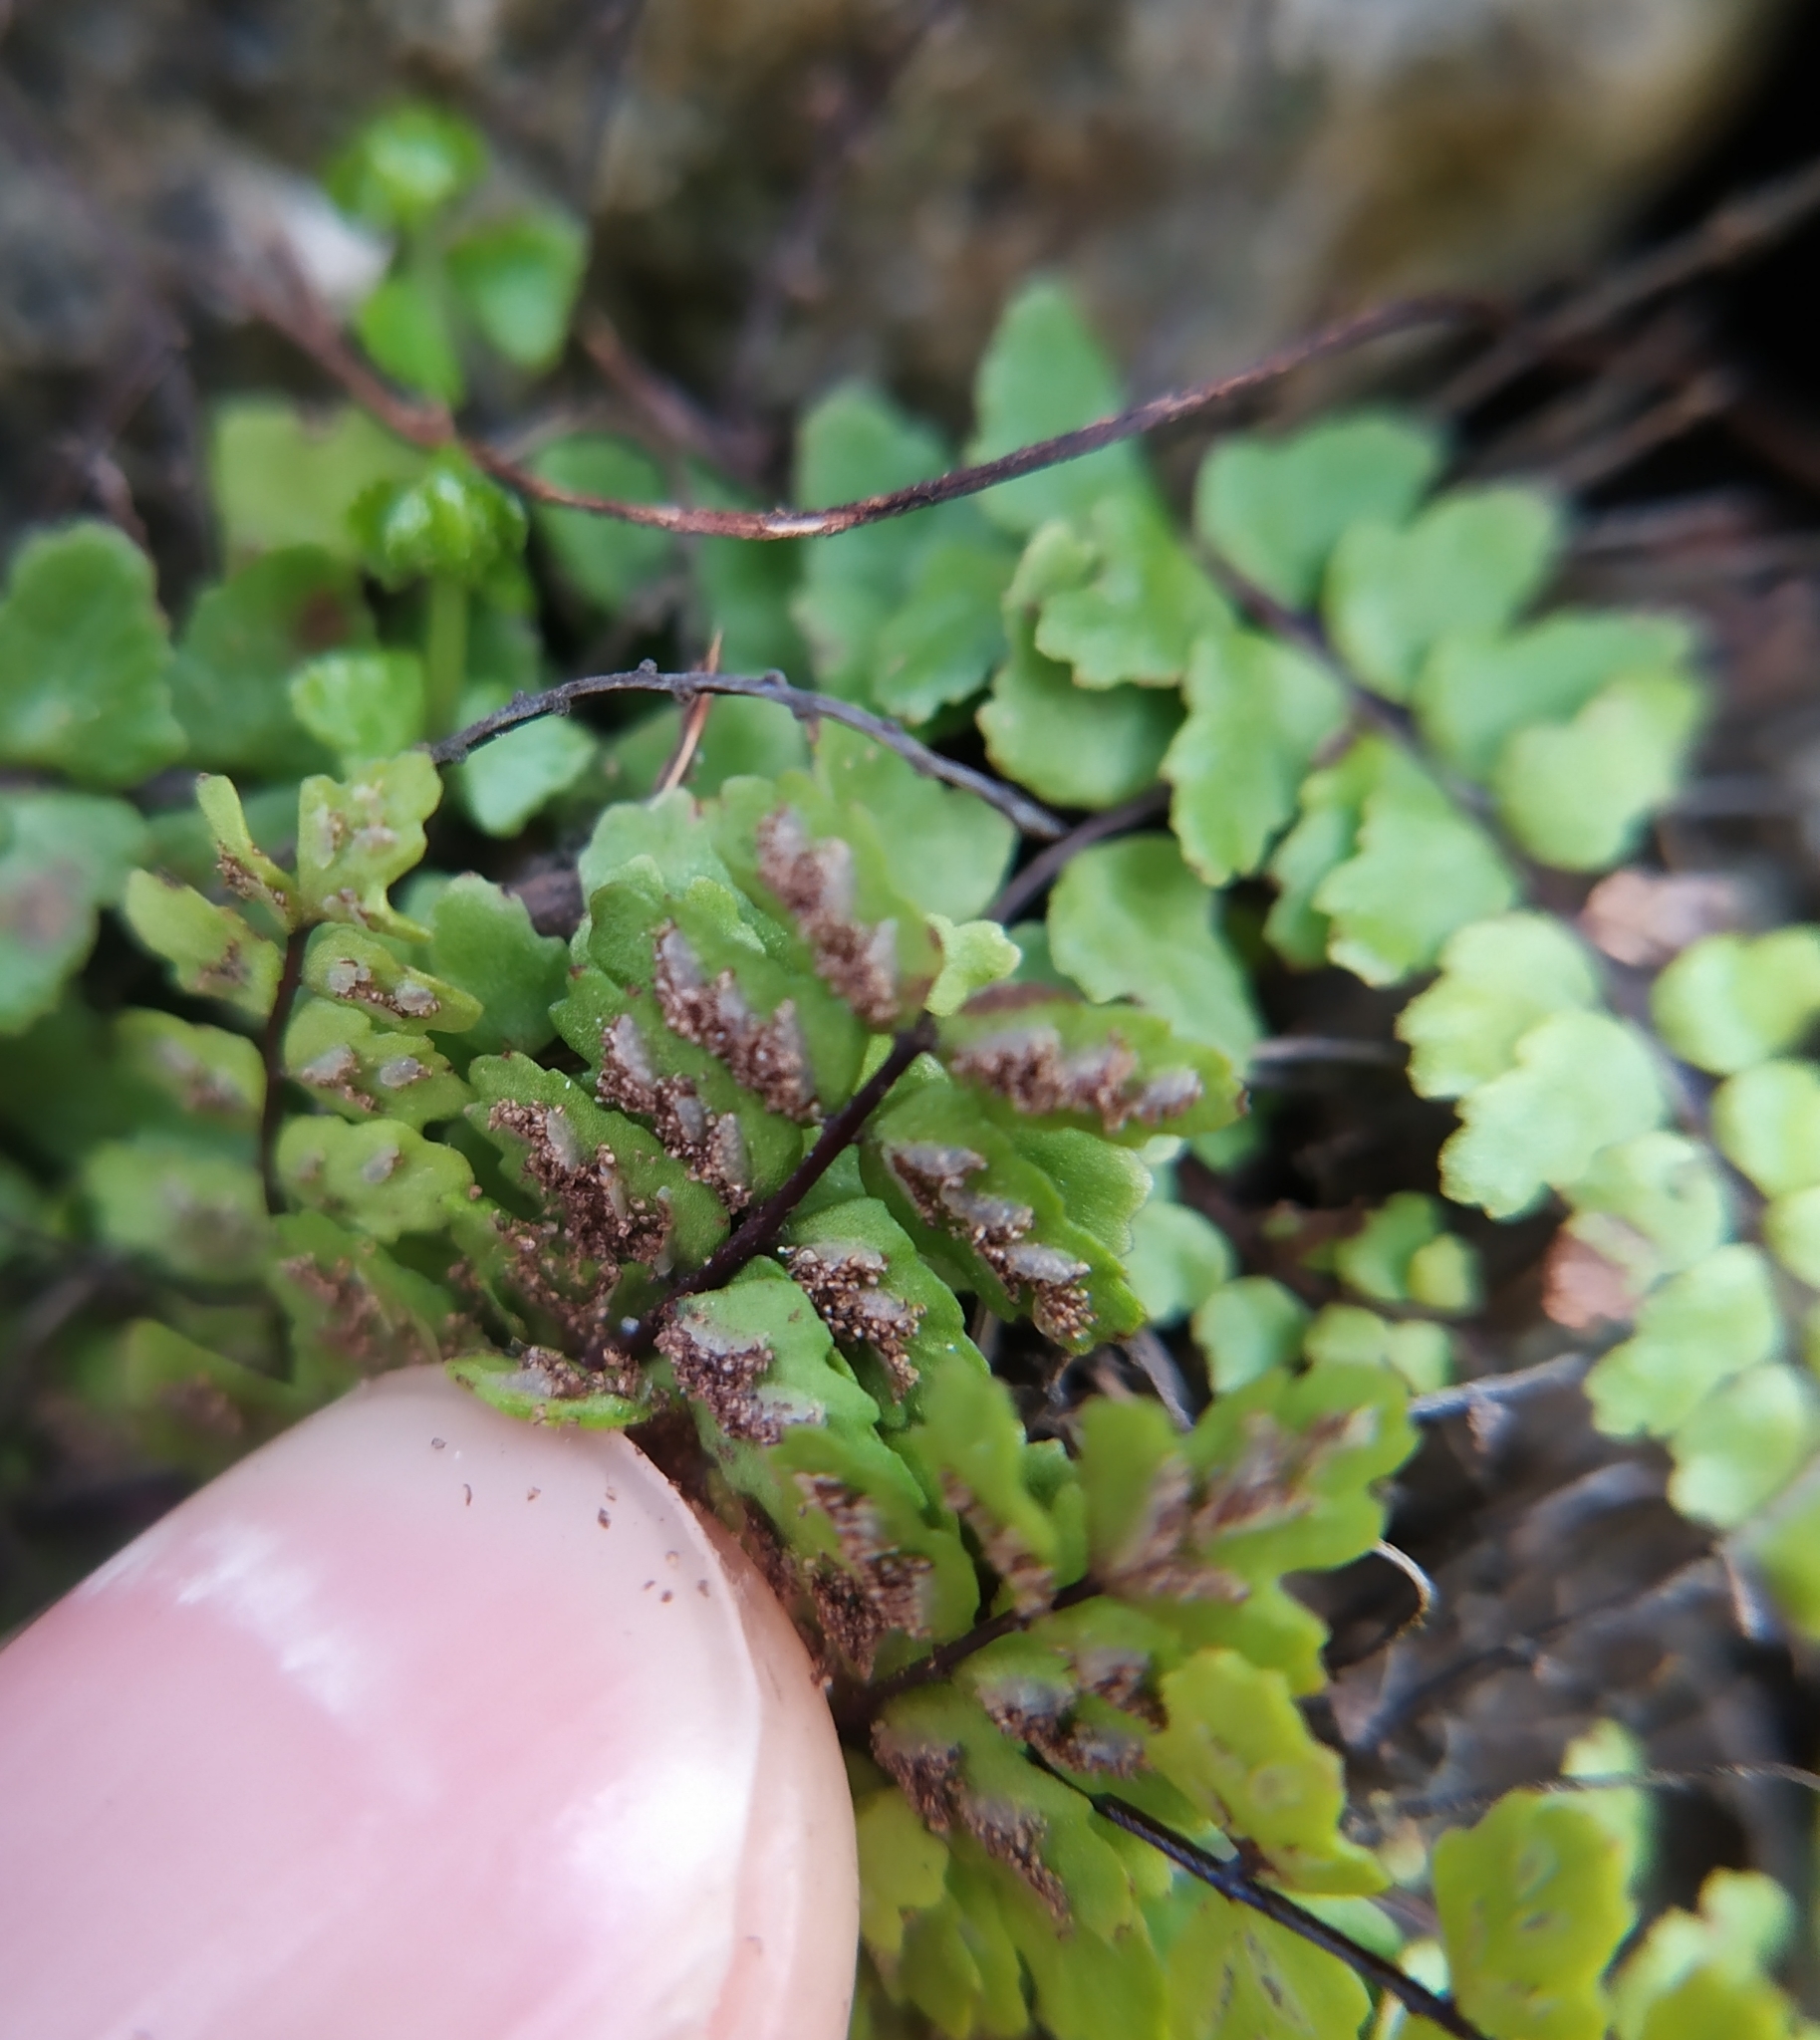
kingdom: Plantae
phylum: Tracheophyta
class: Polypodiopsida
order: Polypodiales
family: Aspleniaceae
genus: Asplenium
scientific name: Asplenium trichomanes
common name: Maidenhair spleenwort
